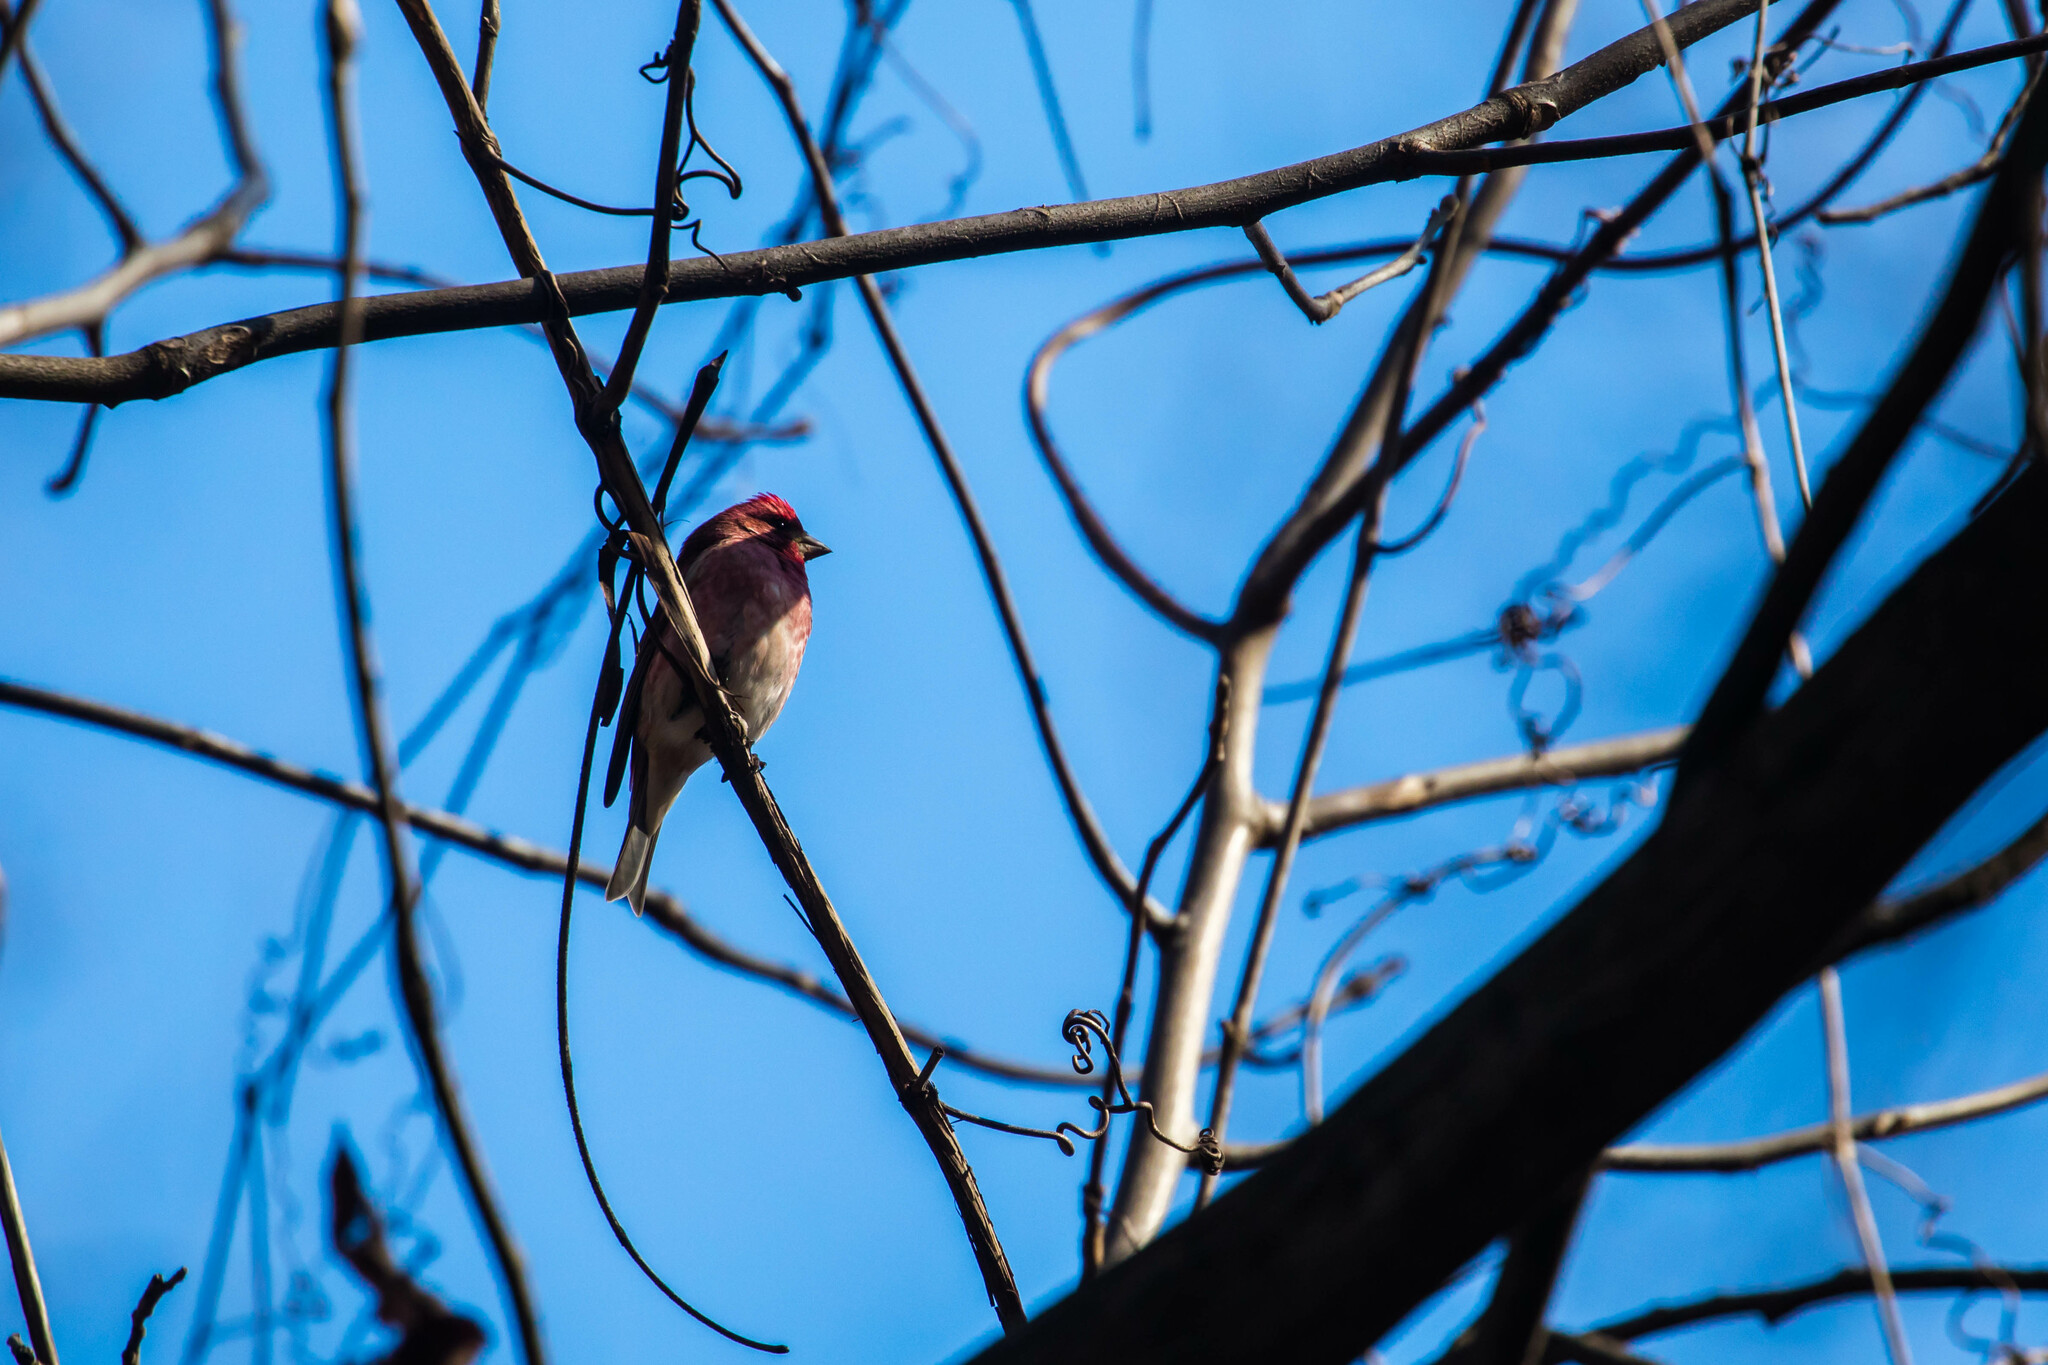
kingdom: Animalia
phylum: Chordata
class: Aves
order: Passeriformes
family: Fringillidae
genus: Haemorhous
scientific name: Haemorhous purpureus
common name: Purple finch
